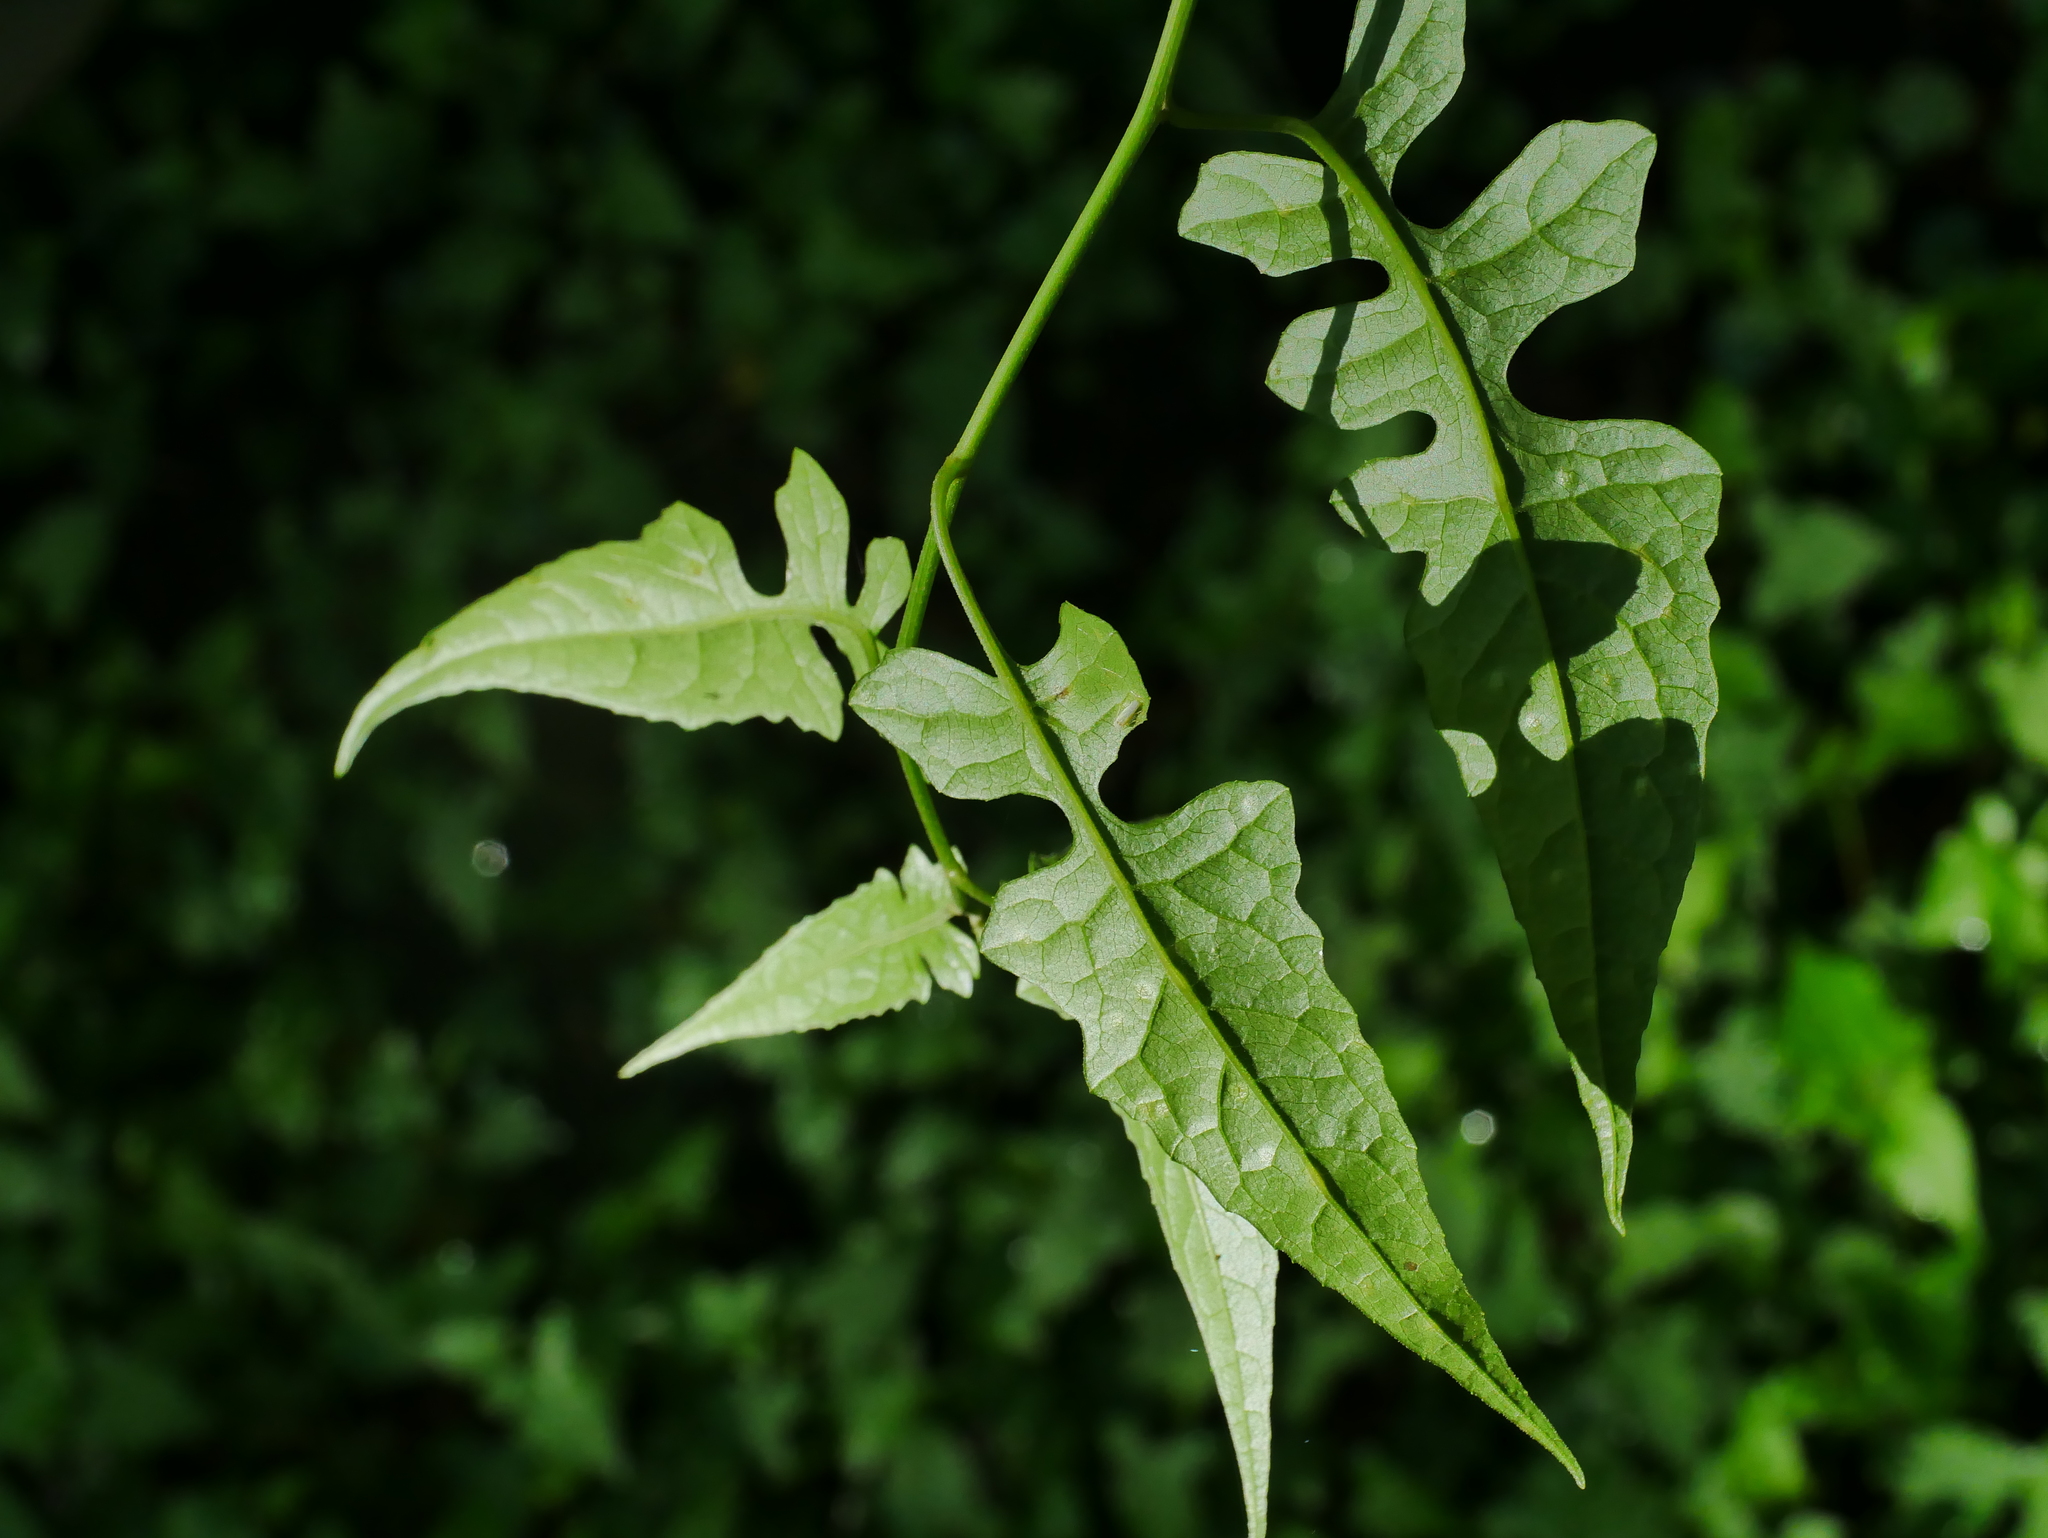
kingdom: Plantae
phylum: Tracheophyta
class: Magnoliopsida
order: Asterales
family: Asteraceae
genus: Senecio
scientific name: Senecio scandens
